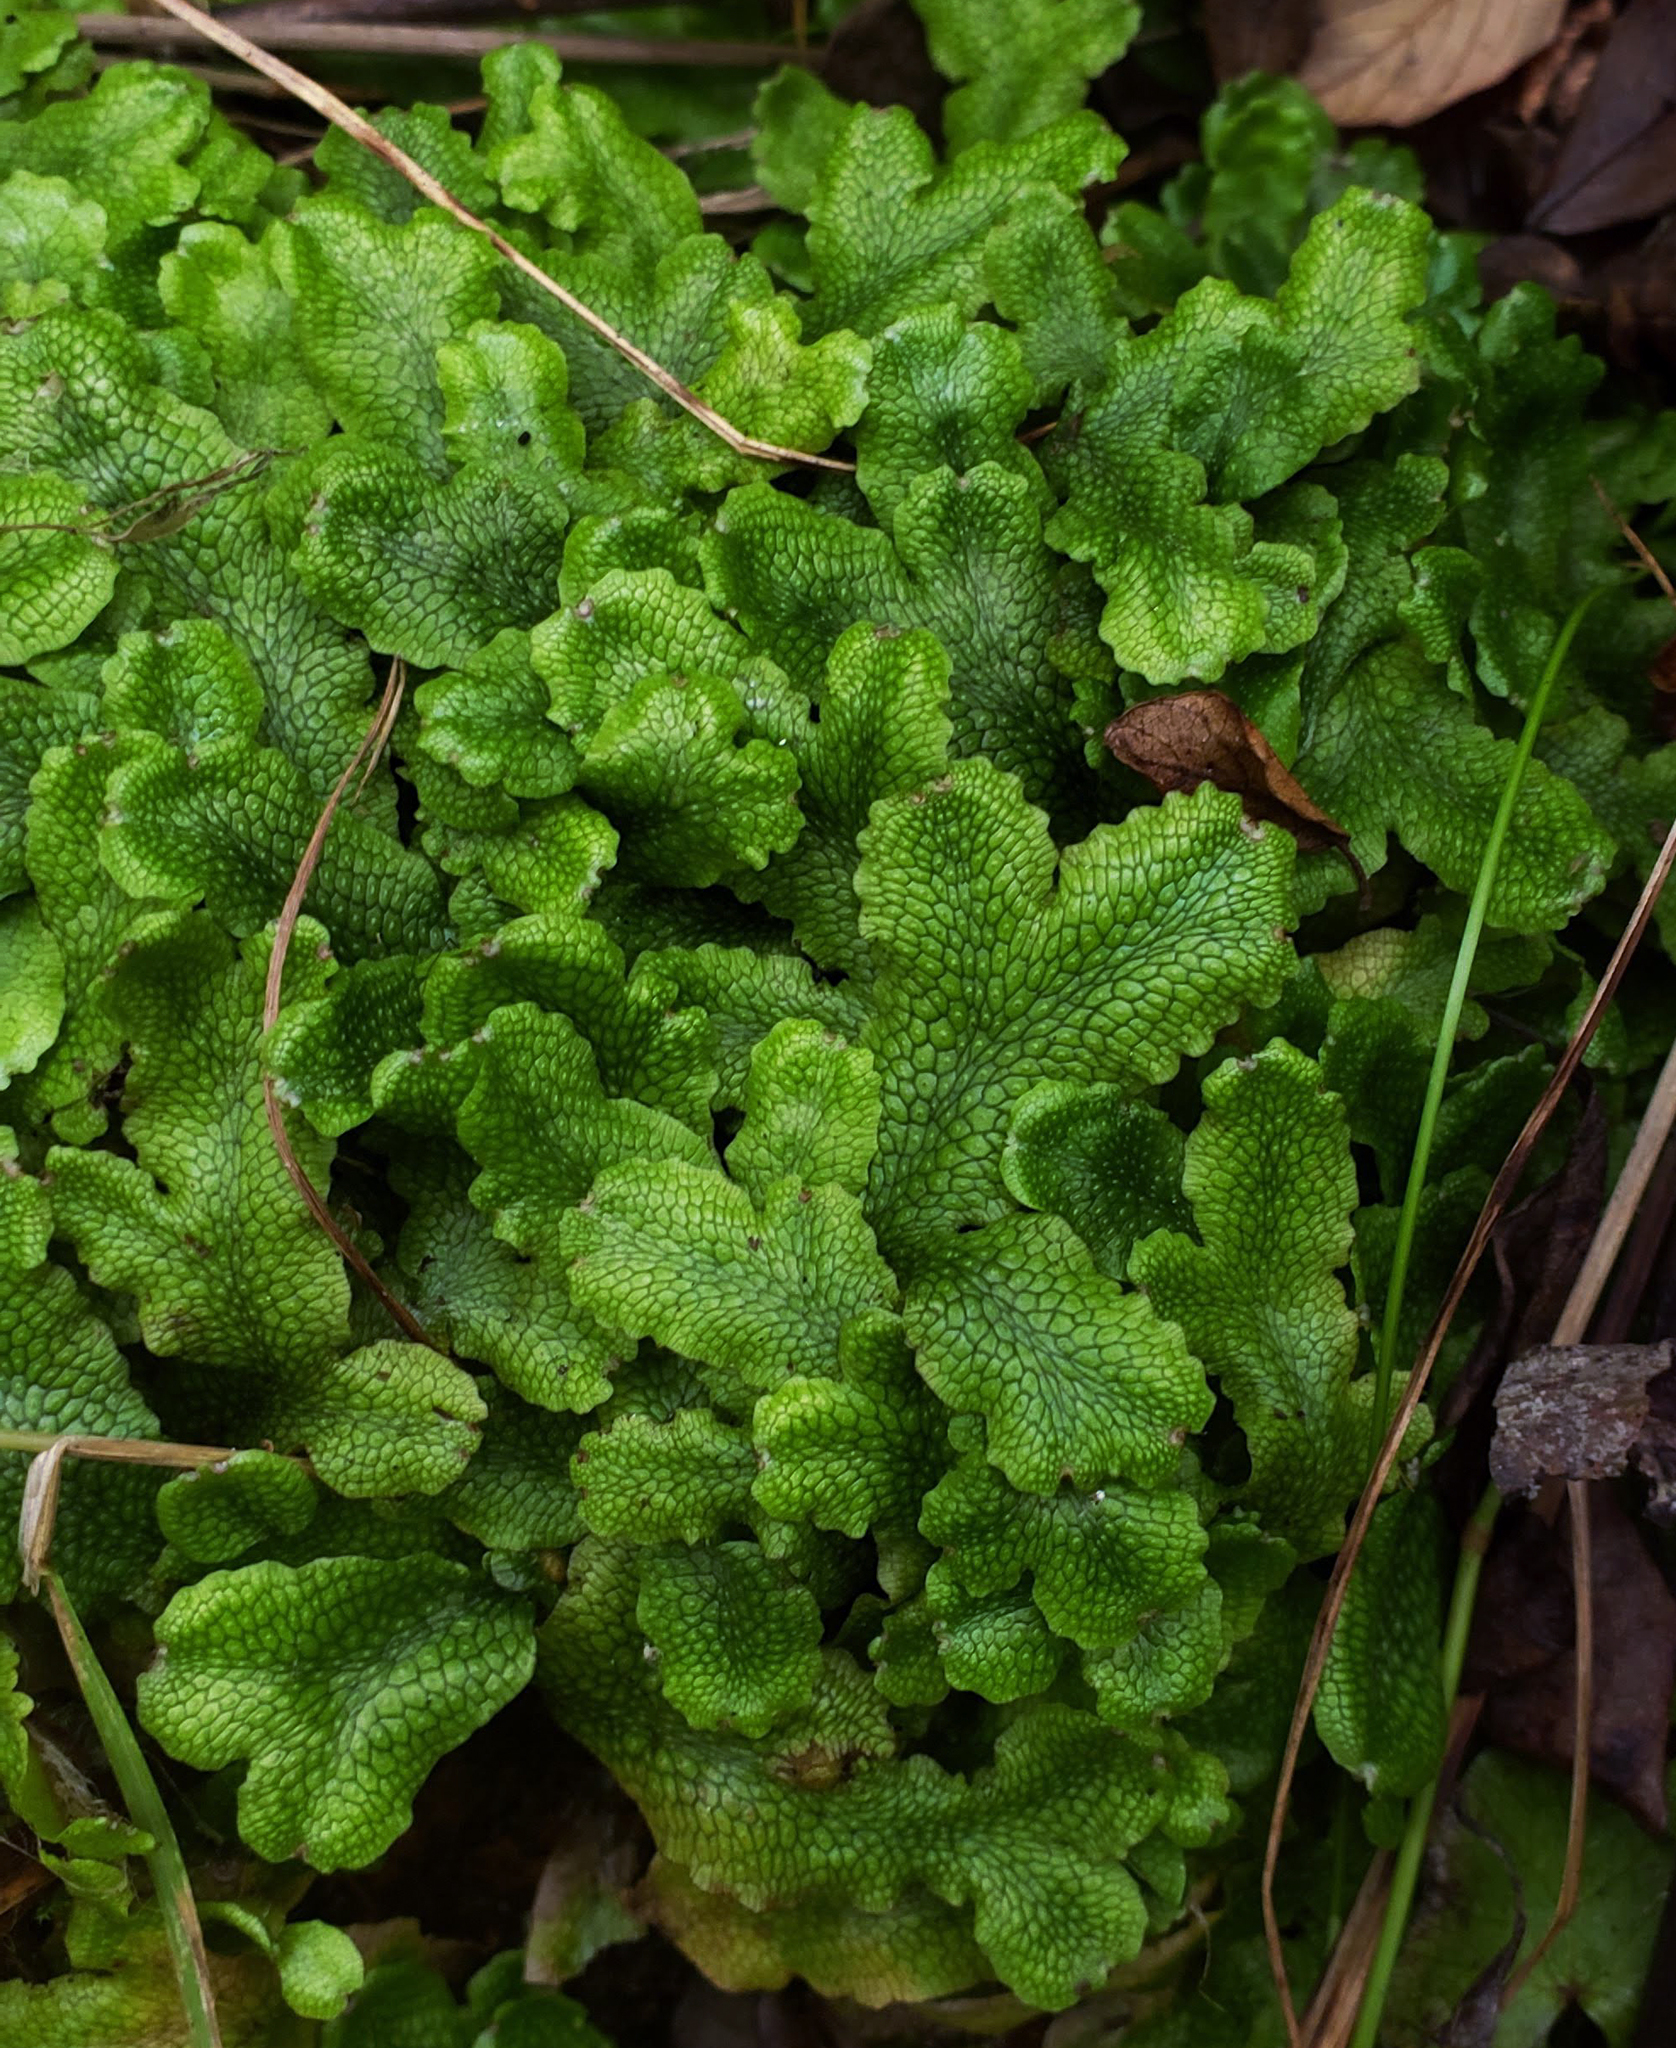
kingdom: Plantae
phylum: Marchantiophyta
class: Marchantiopsida
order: Marchantiales
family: Conocephalaceae
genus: Conocephalum
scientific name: Conocephalum salebrosum
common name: Cat-tongue liverwort
